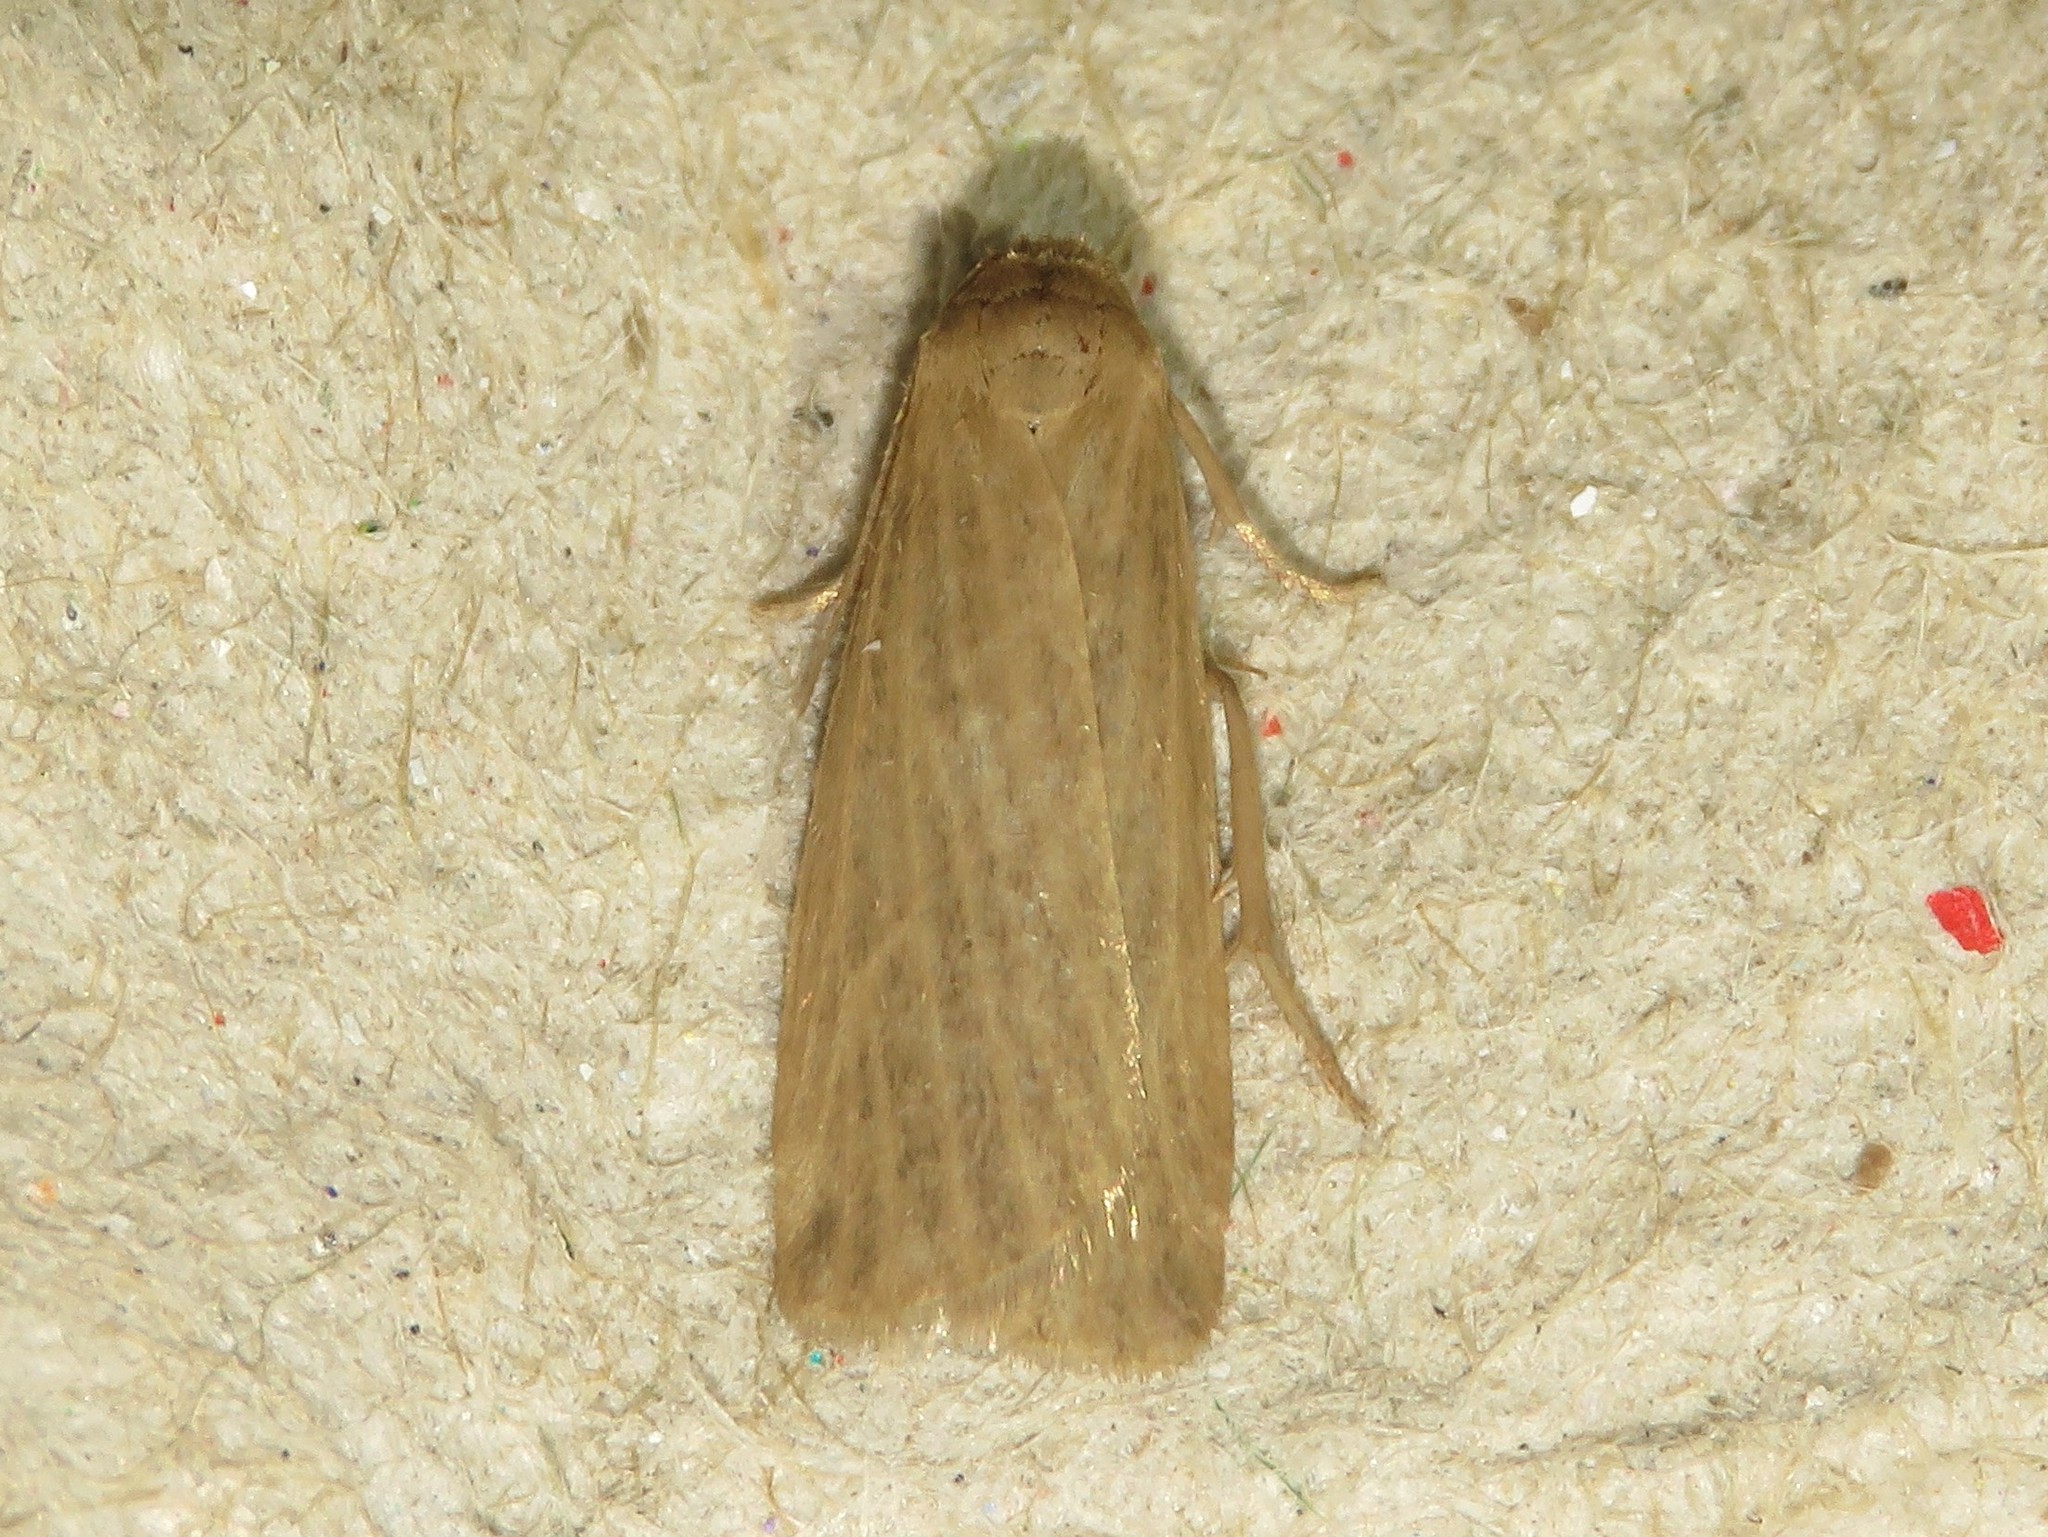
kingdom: Animalia
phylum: Arthropoda
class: Insecta
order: Lepidoptera
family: Erebidae
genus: Crambidia
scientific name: Crambidia pallida
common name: Pale lichen moth
